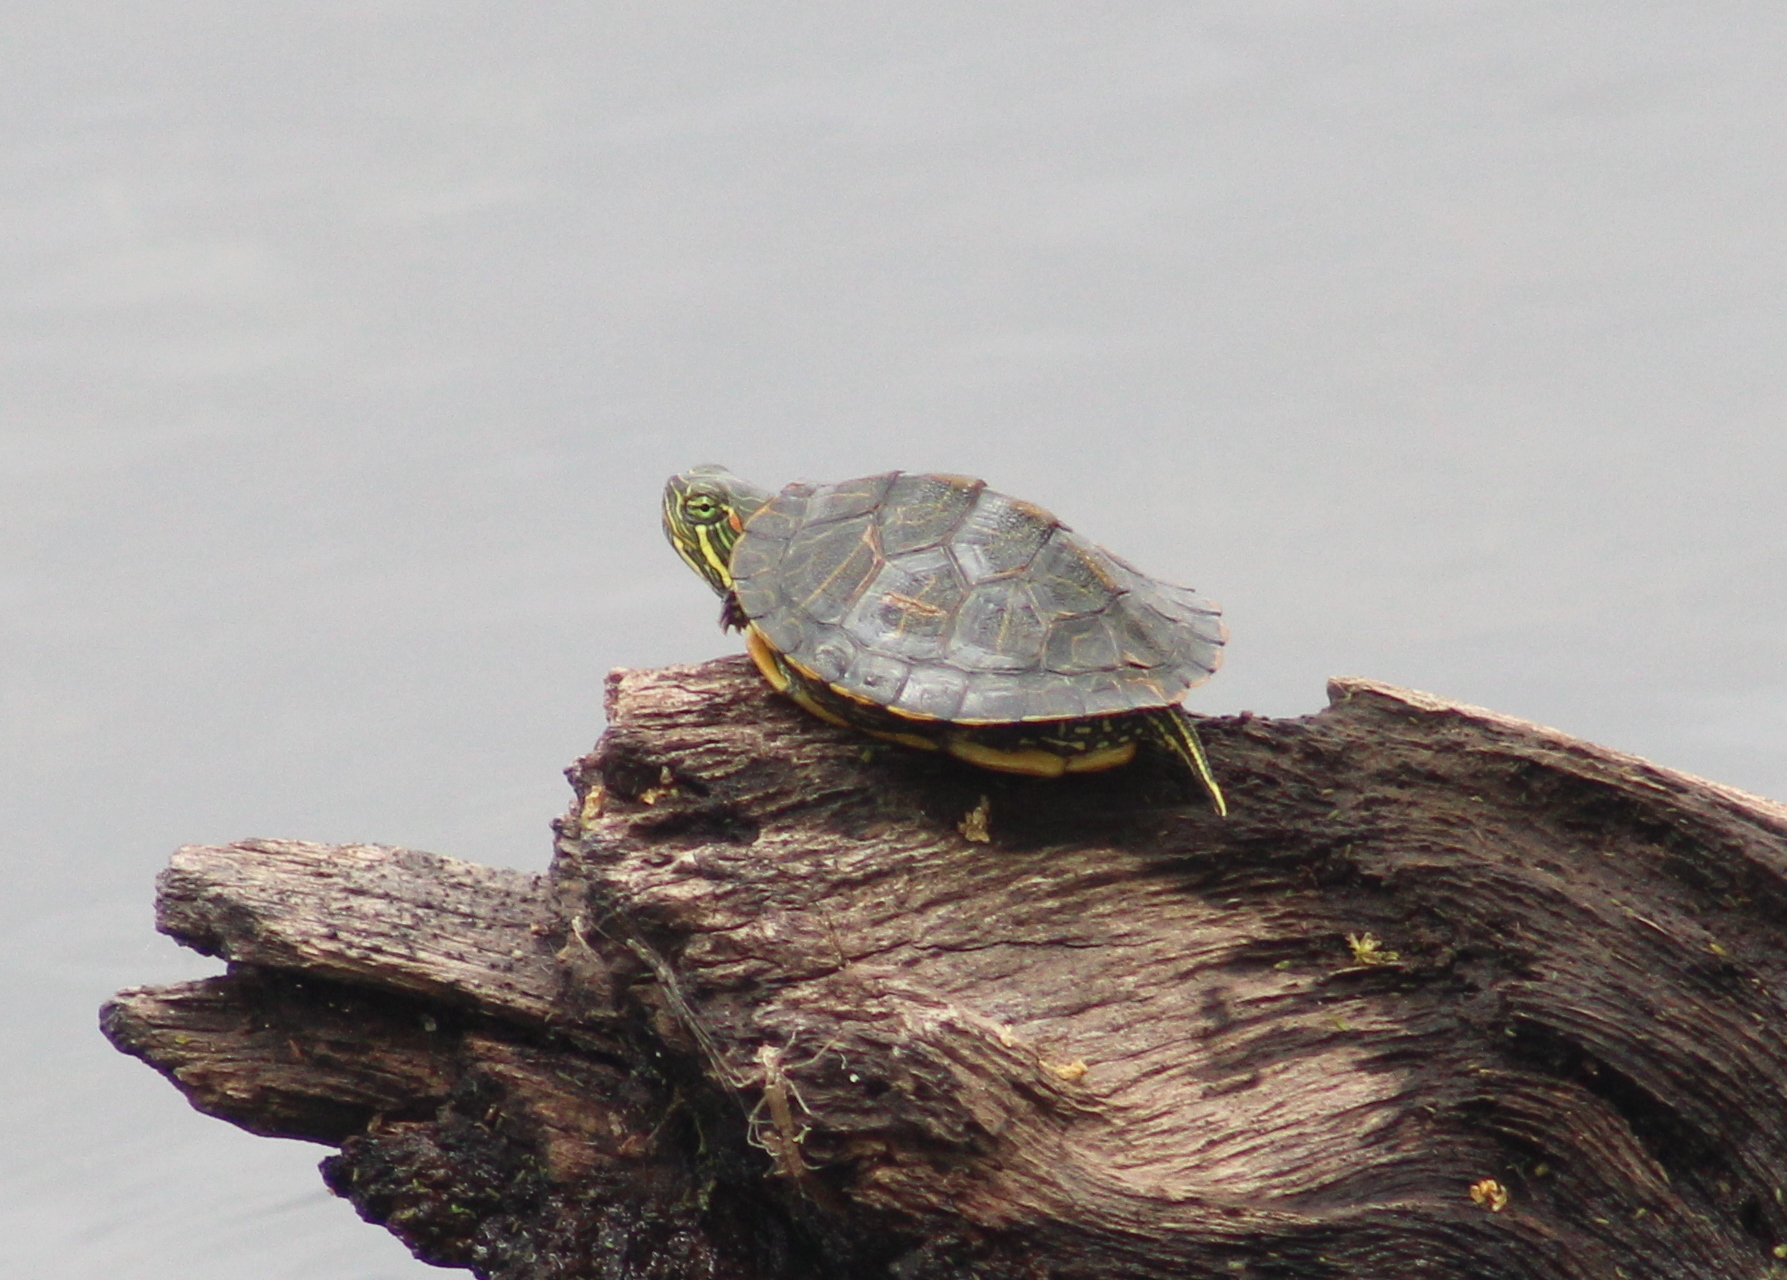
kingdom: Animalia
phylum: Chordata
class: Testudines
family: Emydidae
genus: Trachemys
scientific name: Trachemys scripta
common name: Slider
